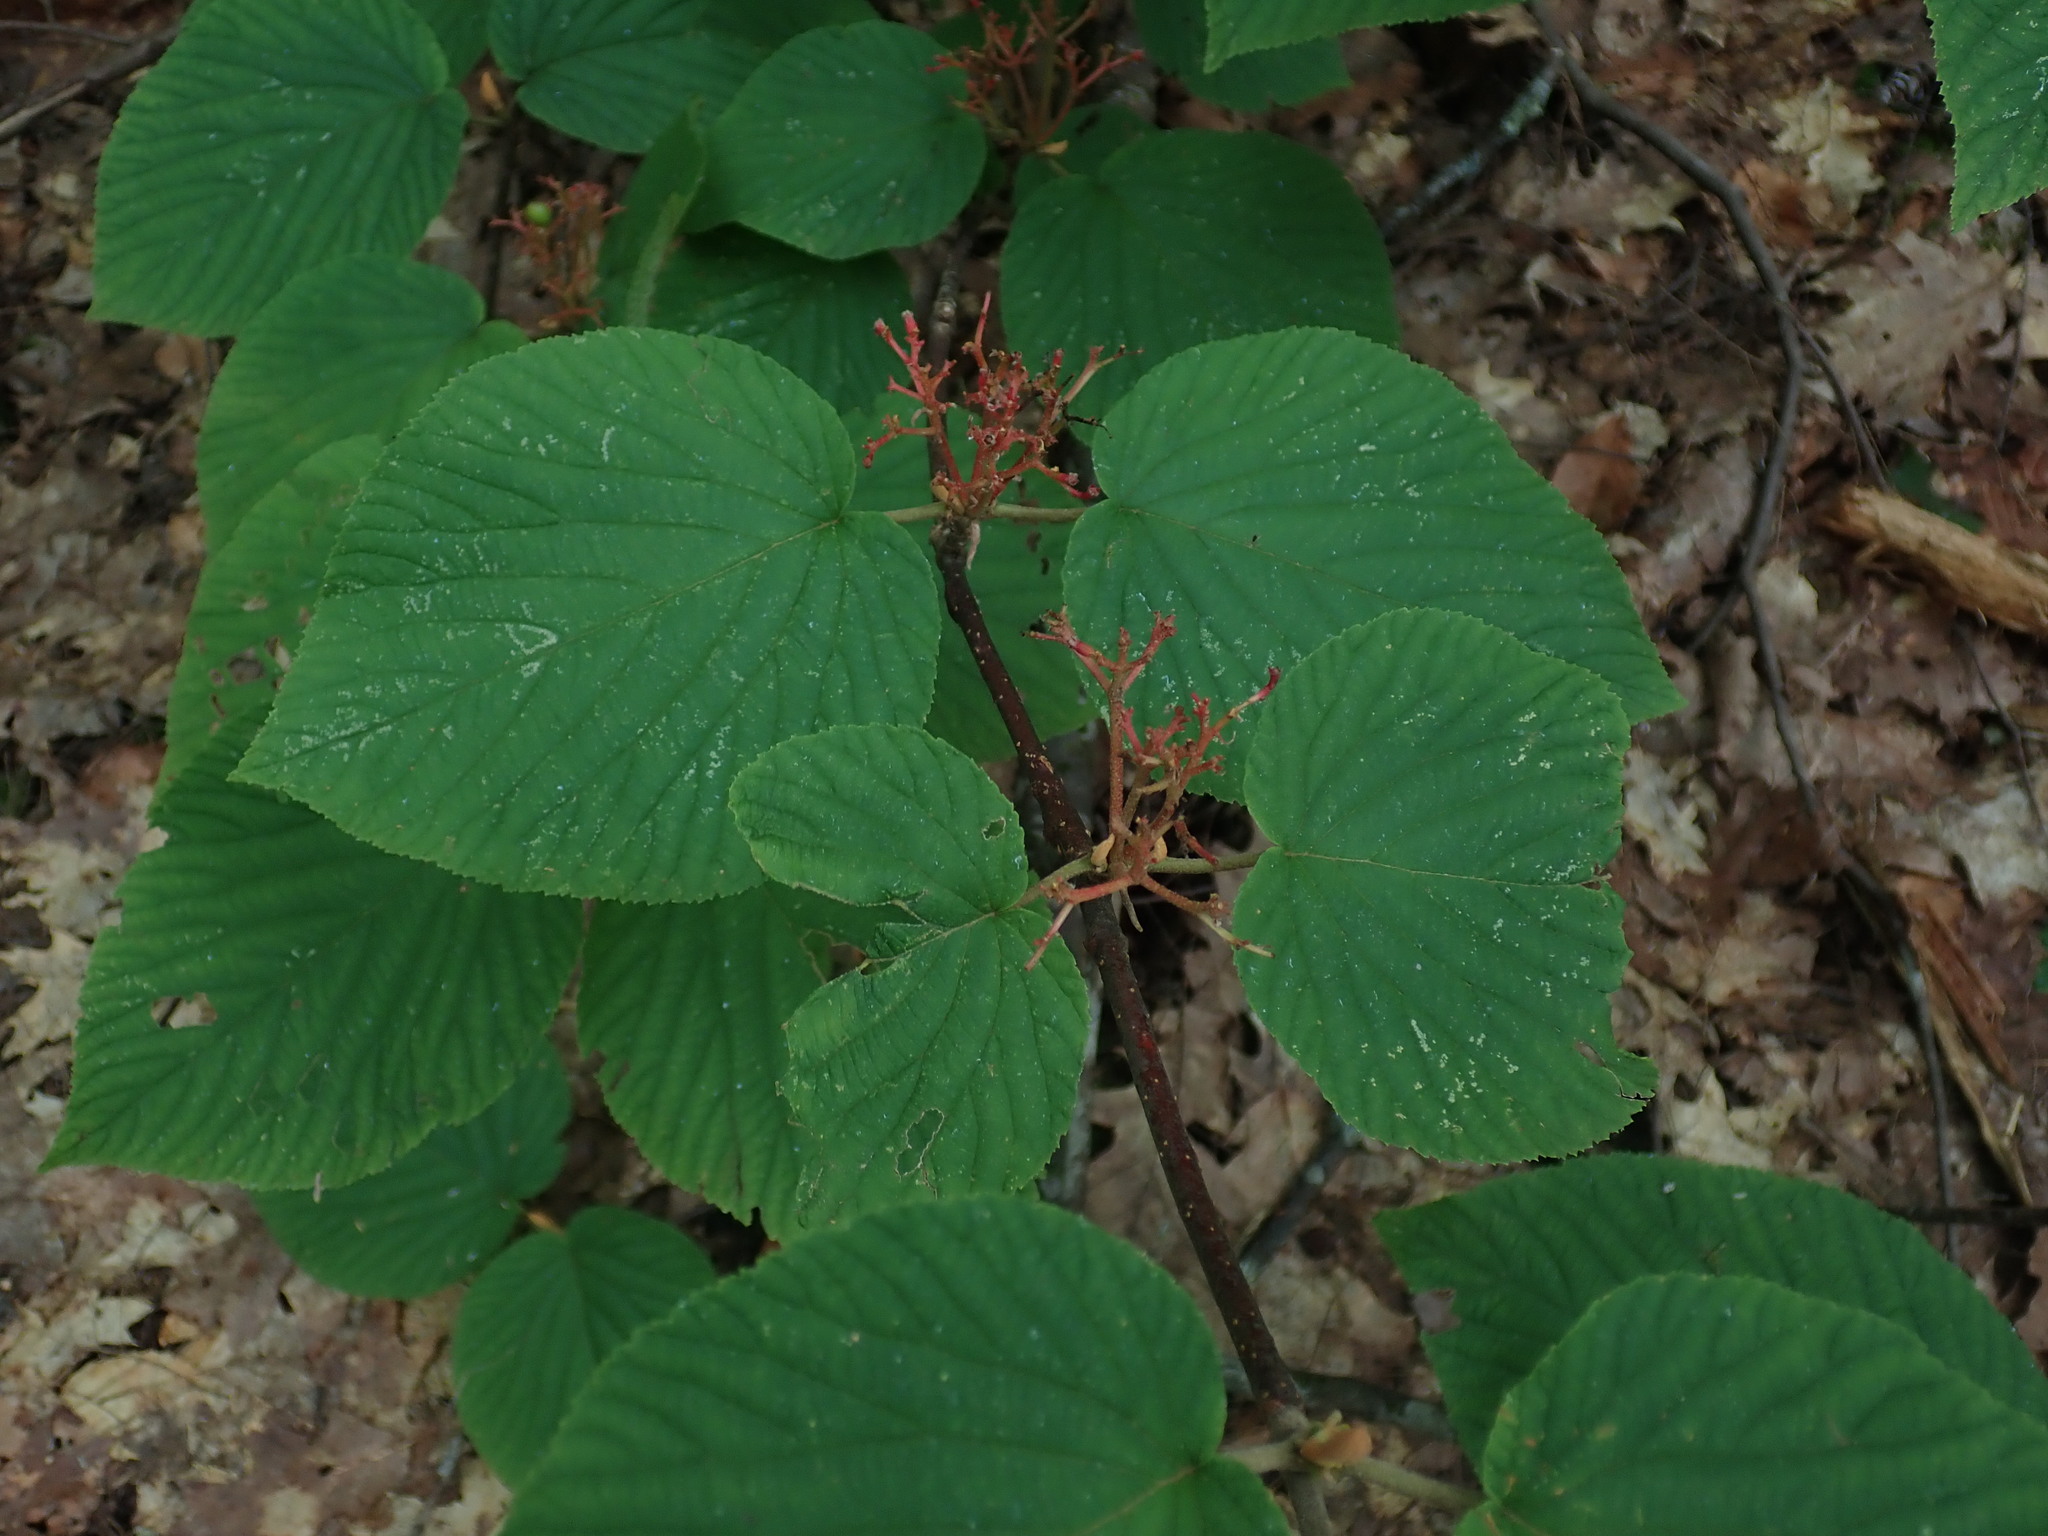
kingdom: Plantae
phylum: Tracheophyta
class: Magnoliopsida
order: Dipsacales
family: Viburnaceae
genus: Viburnum
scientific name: Viburnum lantanoides
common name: Hobblebush
